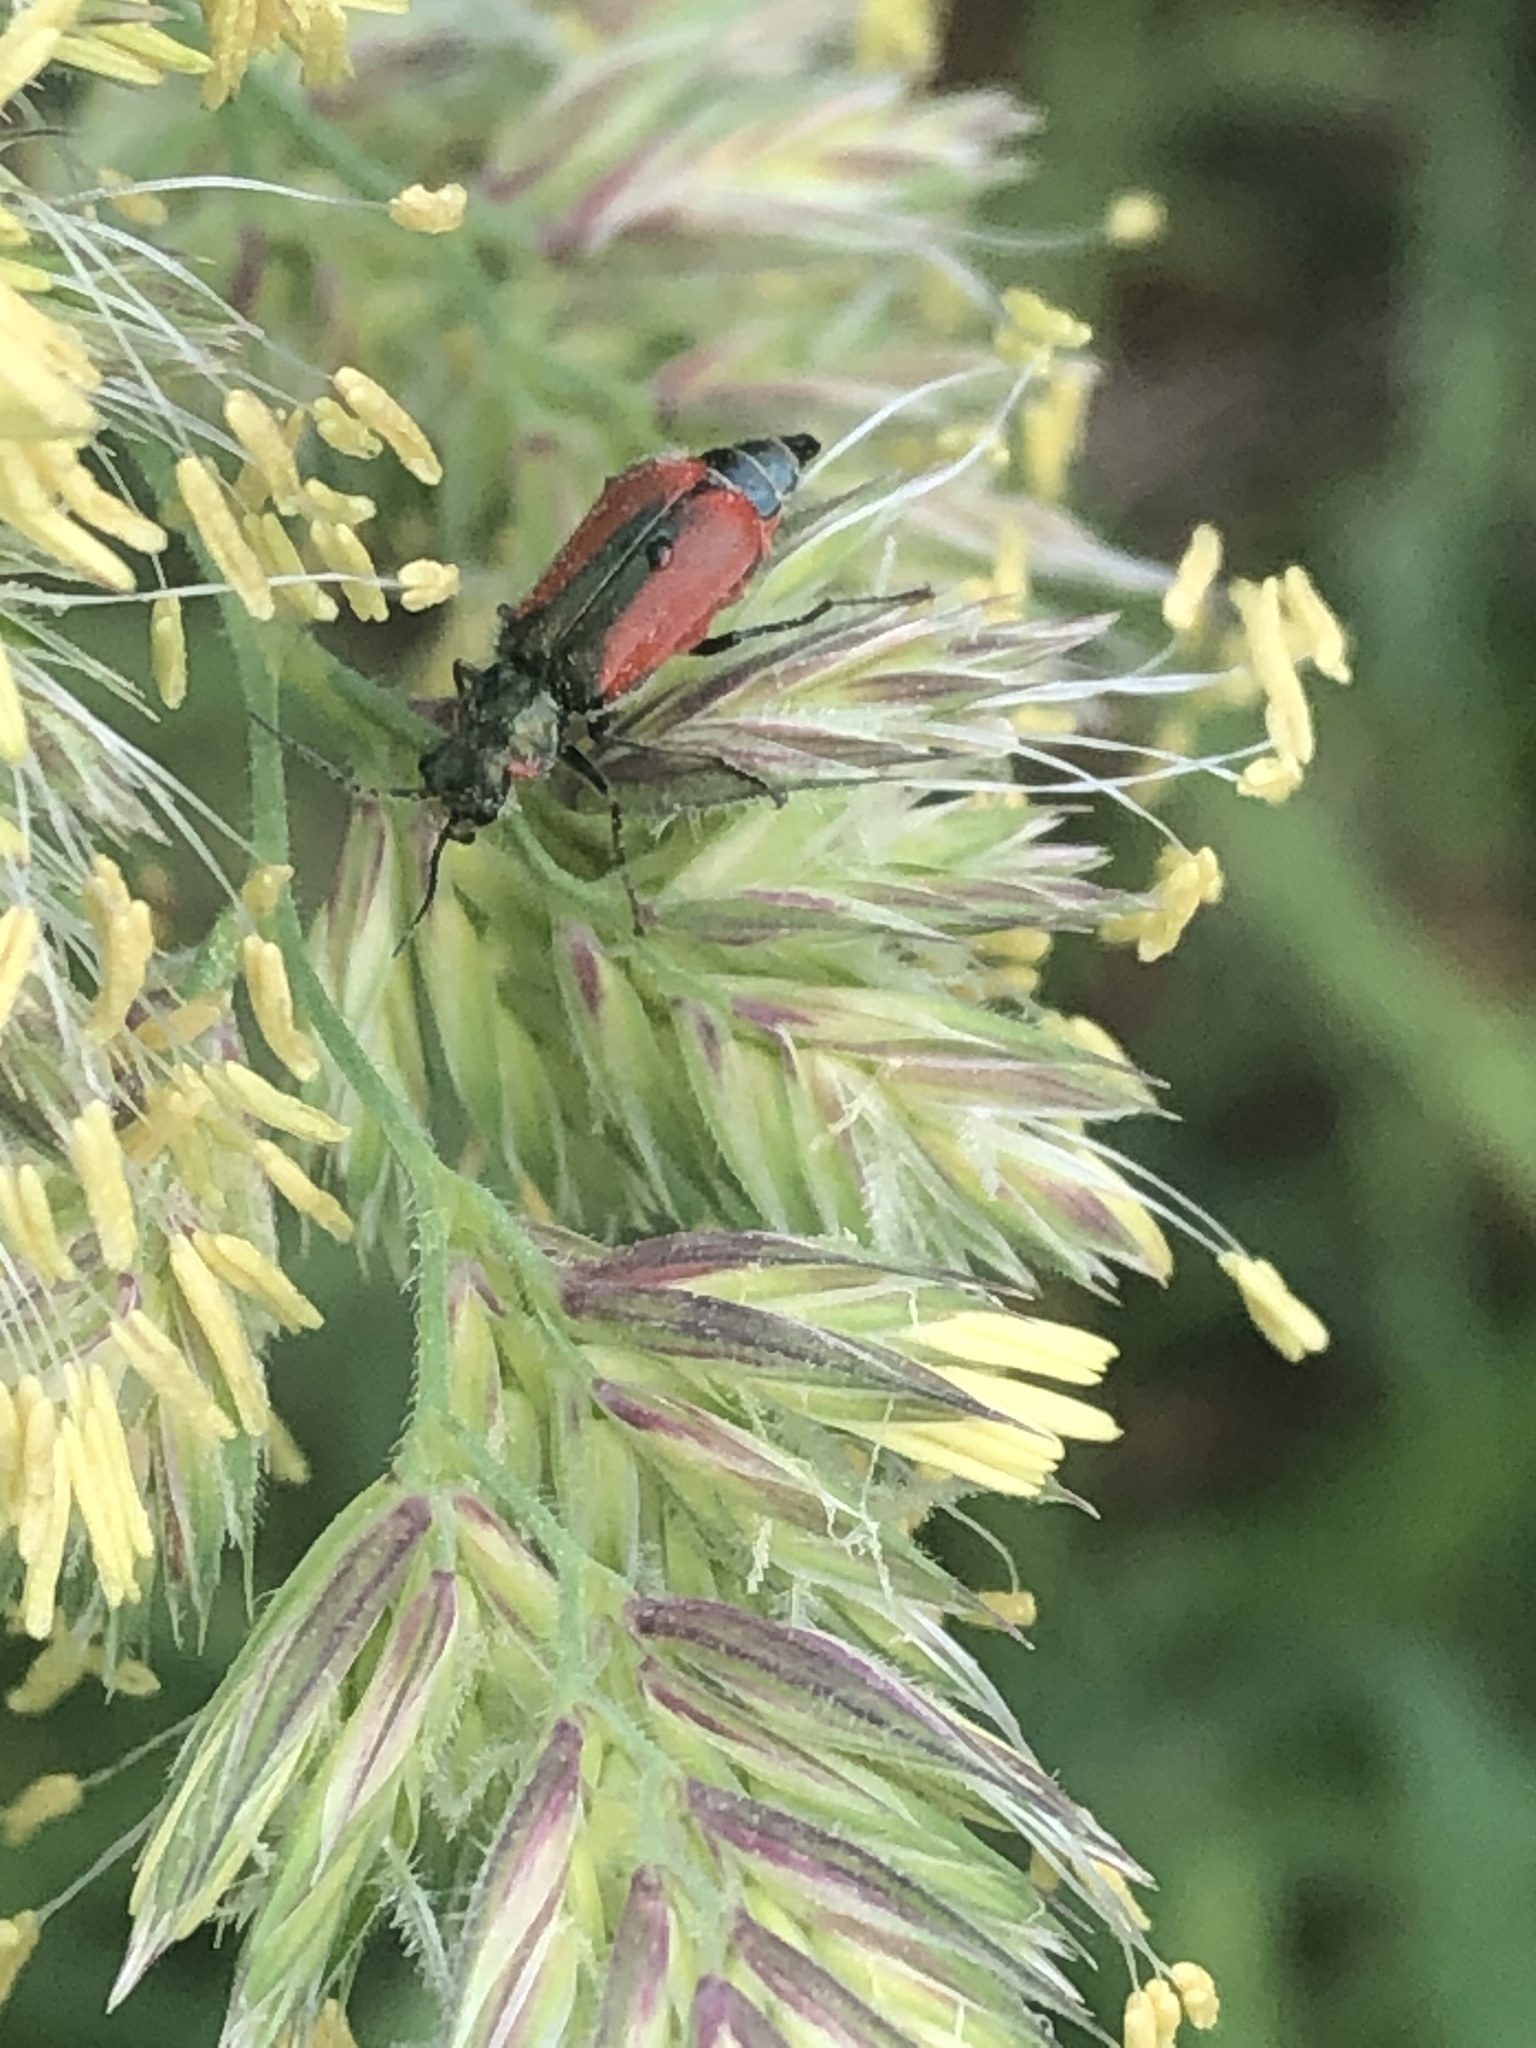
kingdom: Animalia
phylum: Arthropoda
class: Insecta
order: Coleoptera
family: Melyridae
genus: Malachius
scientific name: Malachius aeneus
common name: Scarlet malachite beetle
